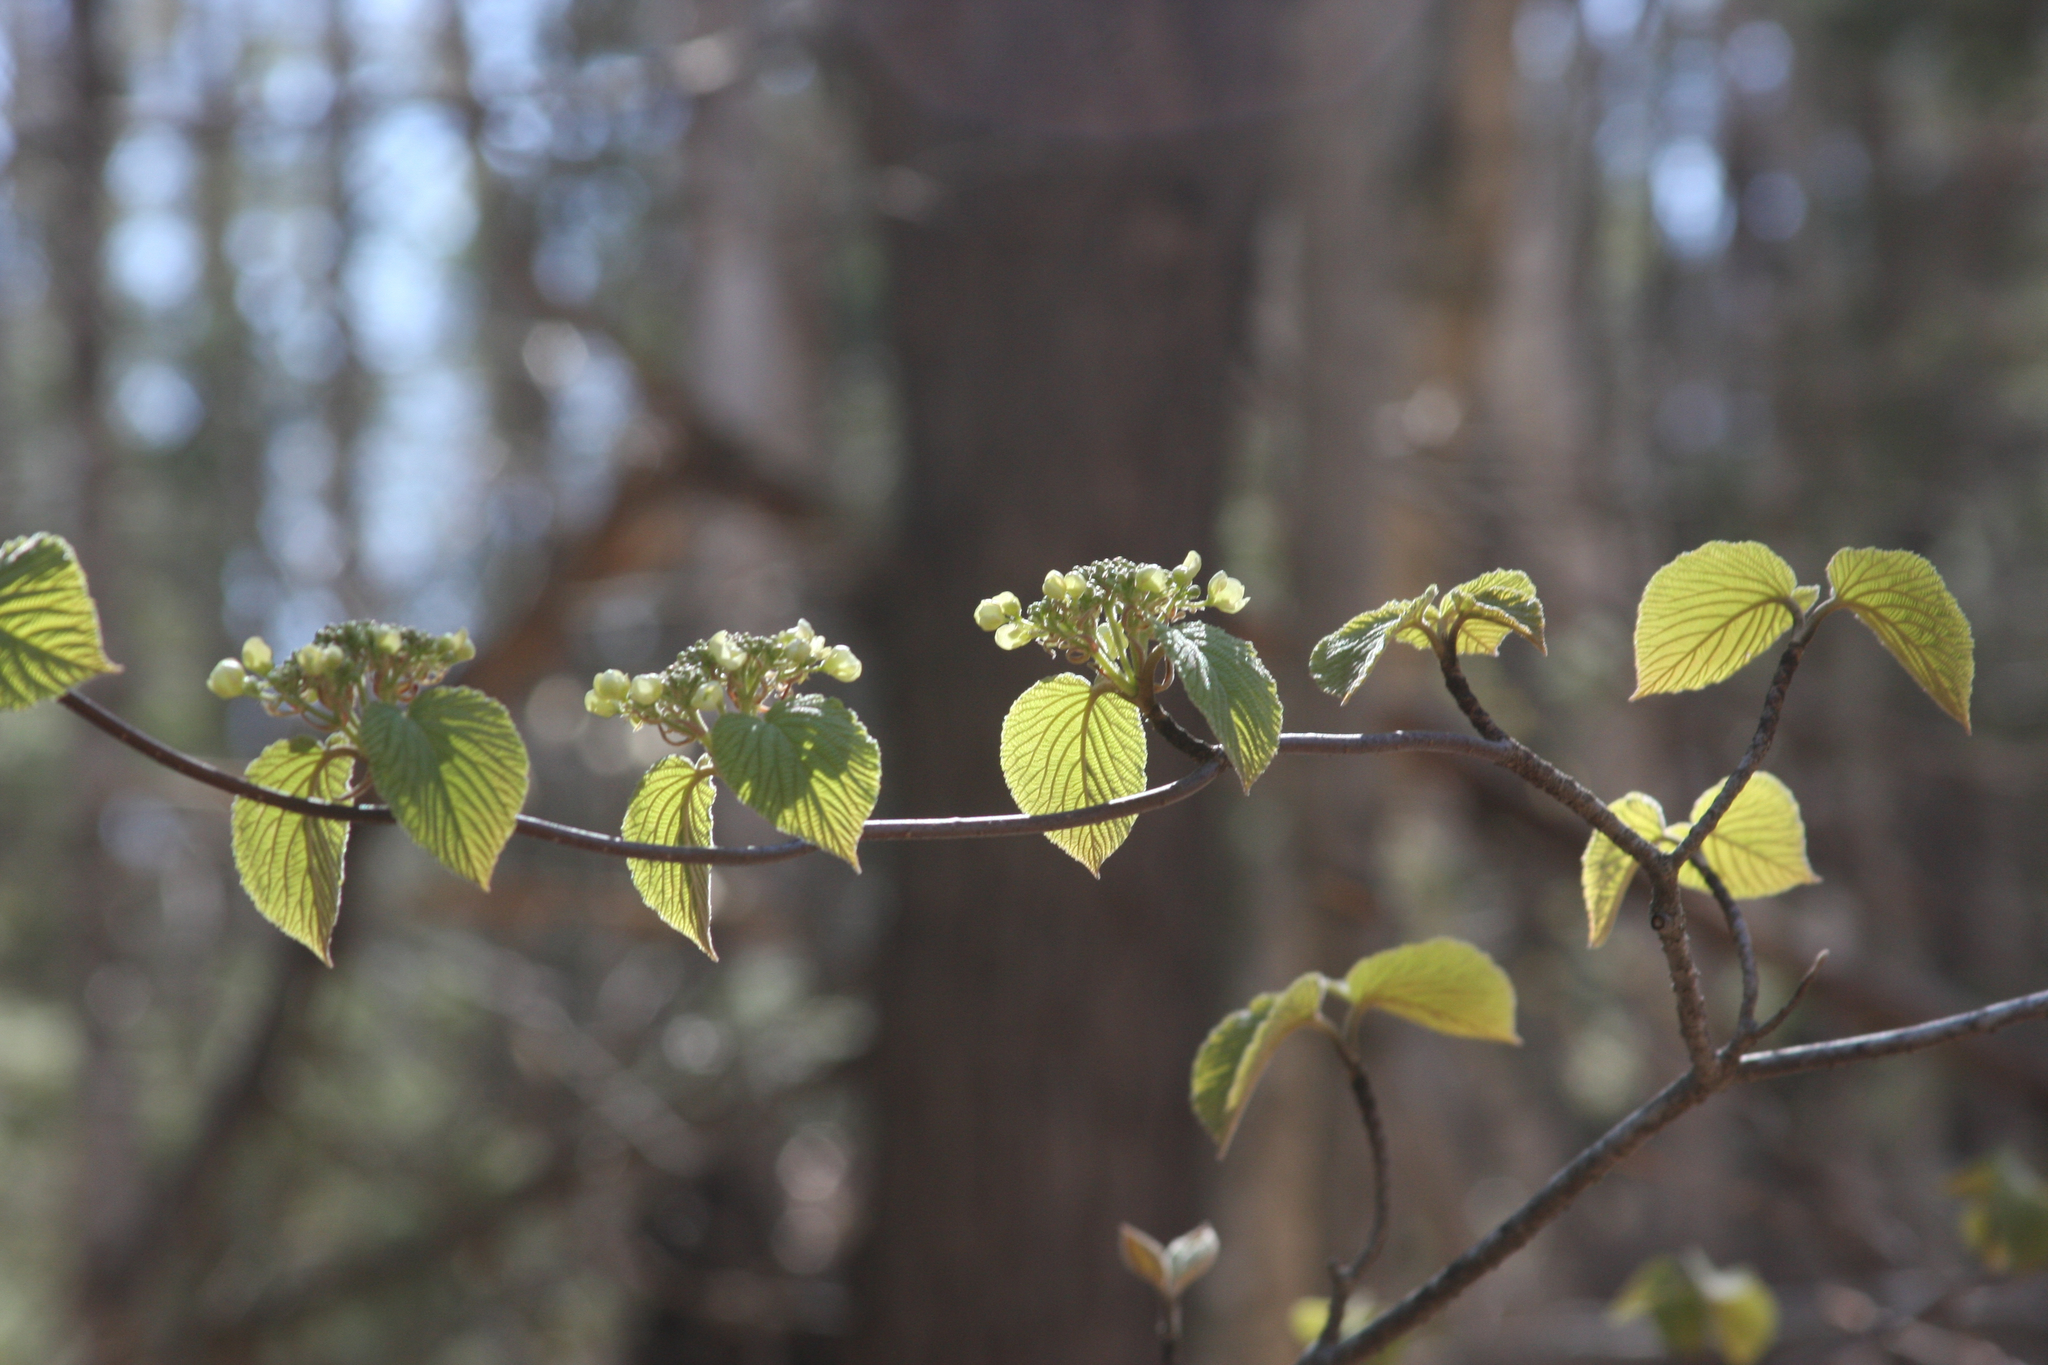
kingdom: Plantae
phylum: Tracheophyta
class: Magnoliopsida
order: Dipsacales
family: Viburnaceae
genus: Viburnum
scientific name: Viburnum lantanoides
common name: Hobblebush
